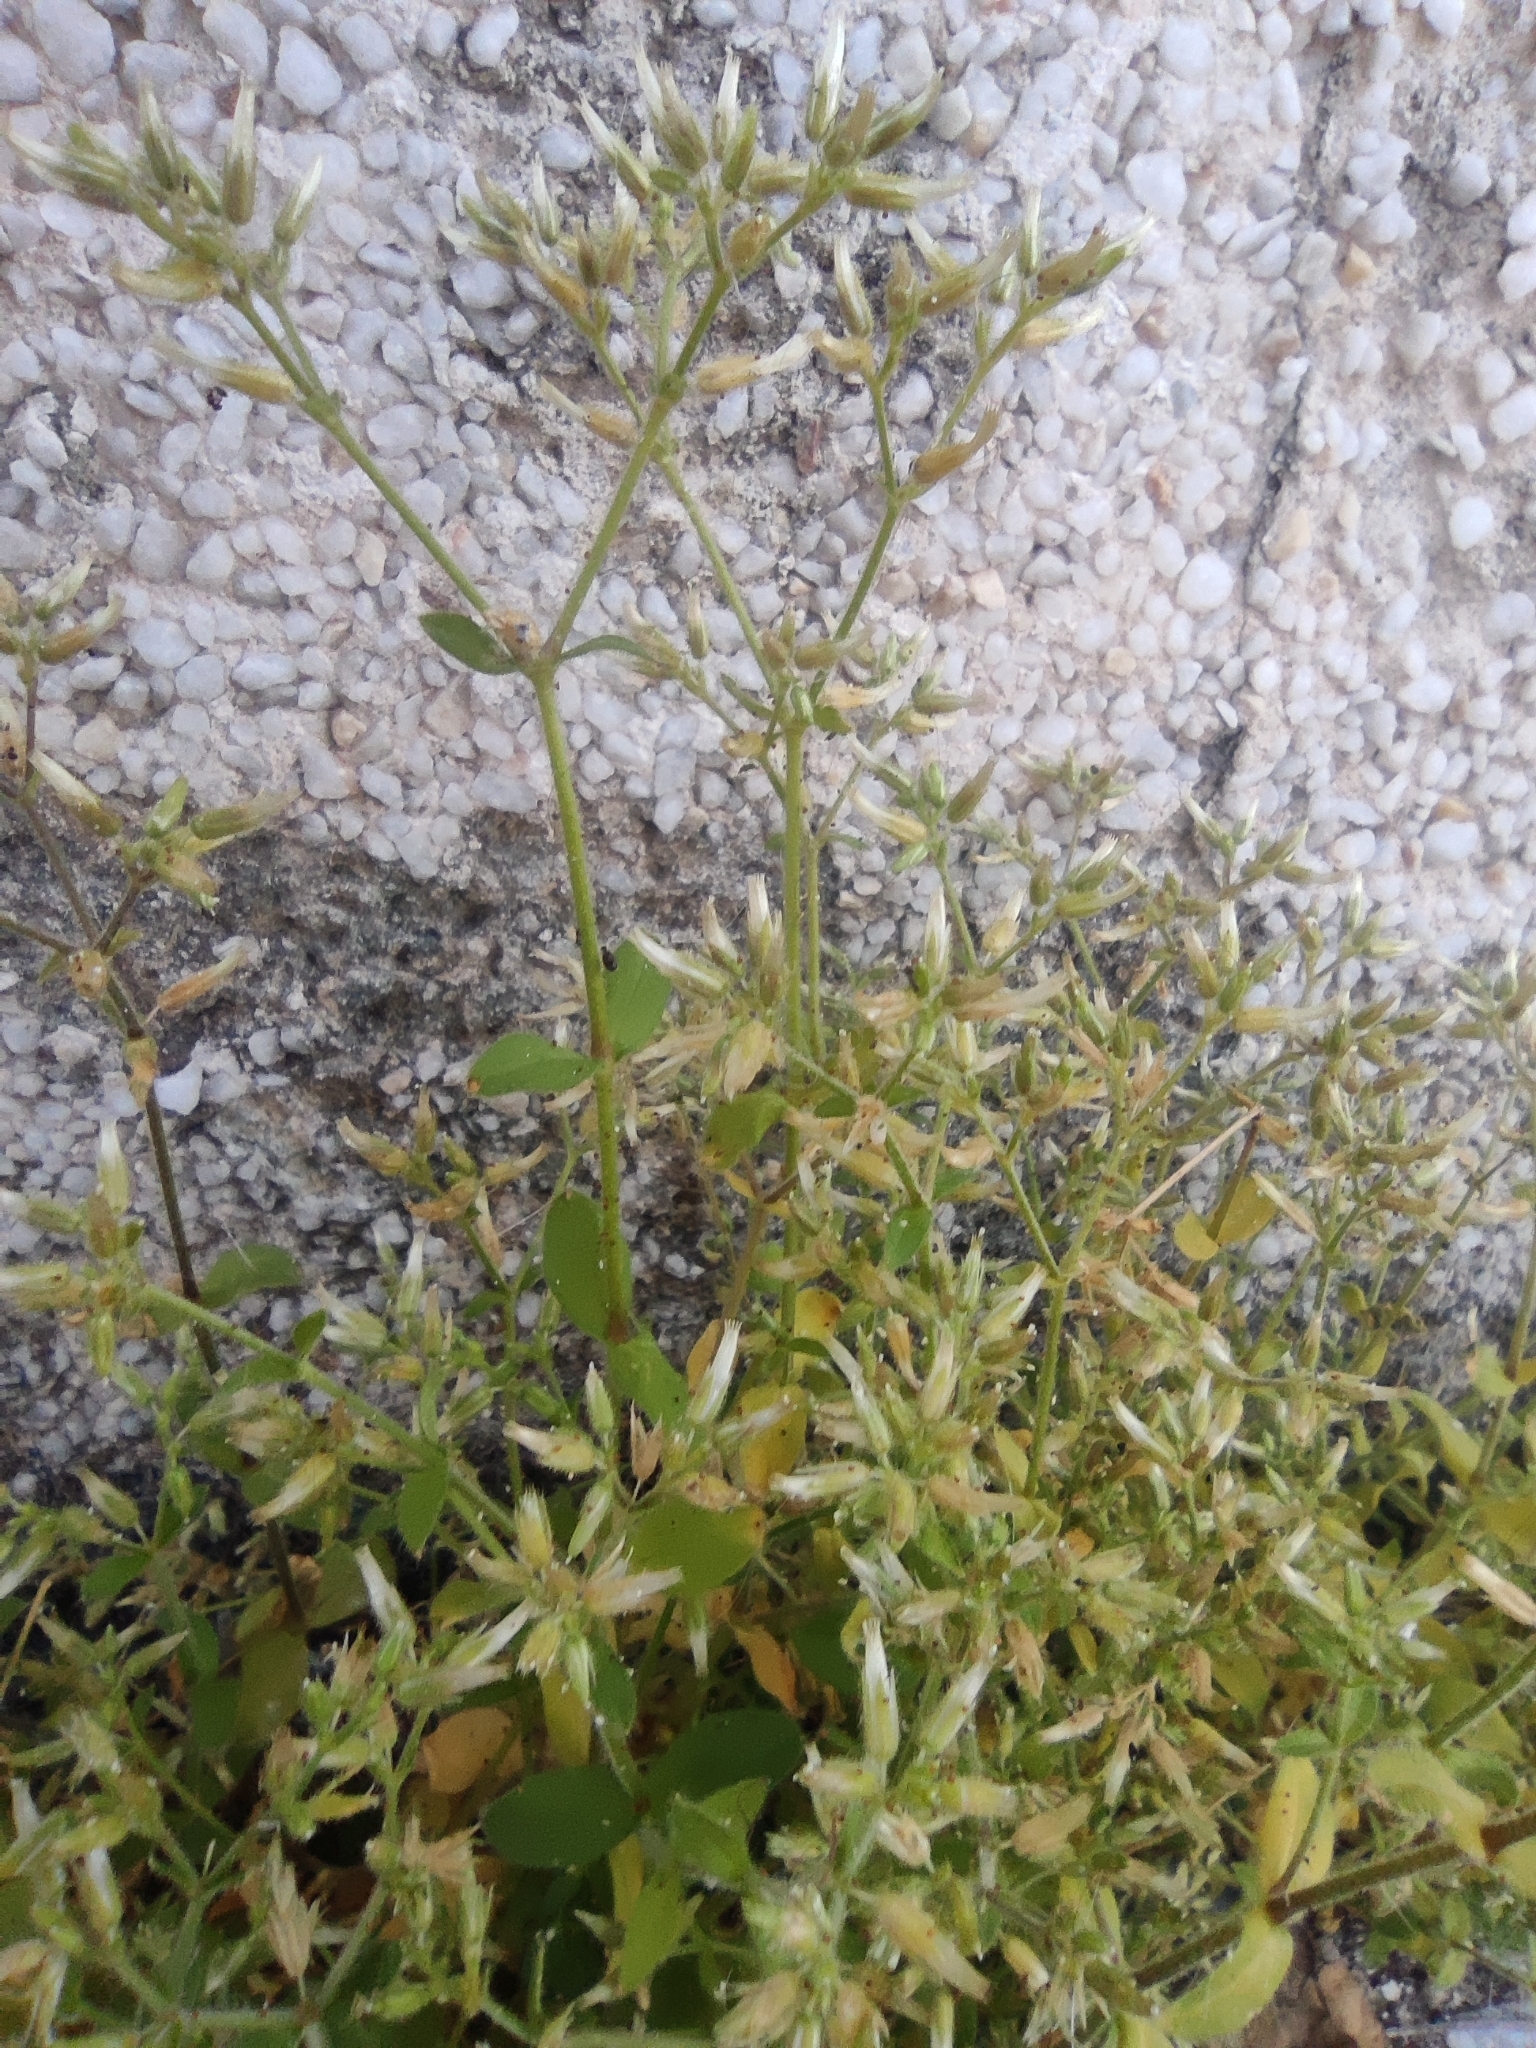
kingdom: Plantae
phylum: Tracheophyta
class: Magnoliopsida
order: Caryophyllales
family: Caryophyllaceae
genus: Cerastium
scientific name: Cerastium glomeratum
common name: Sticky chickweed
